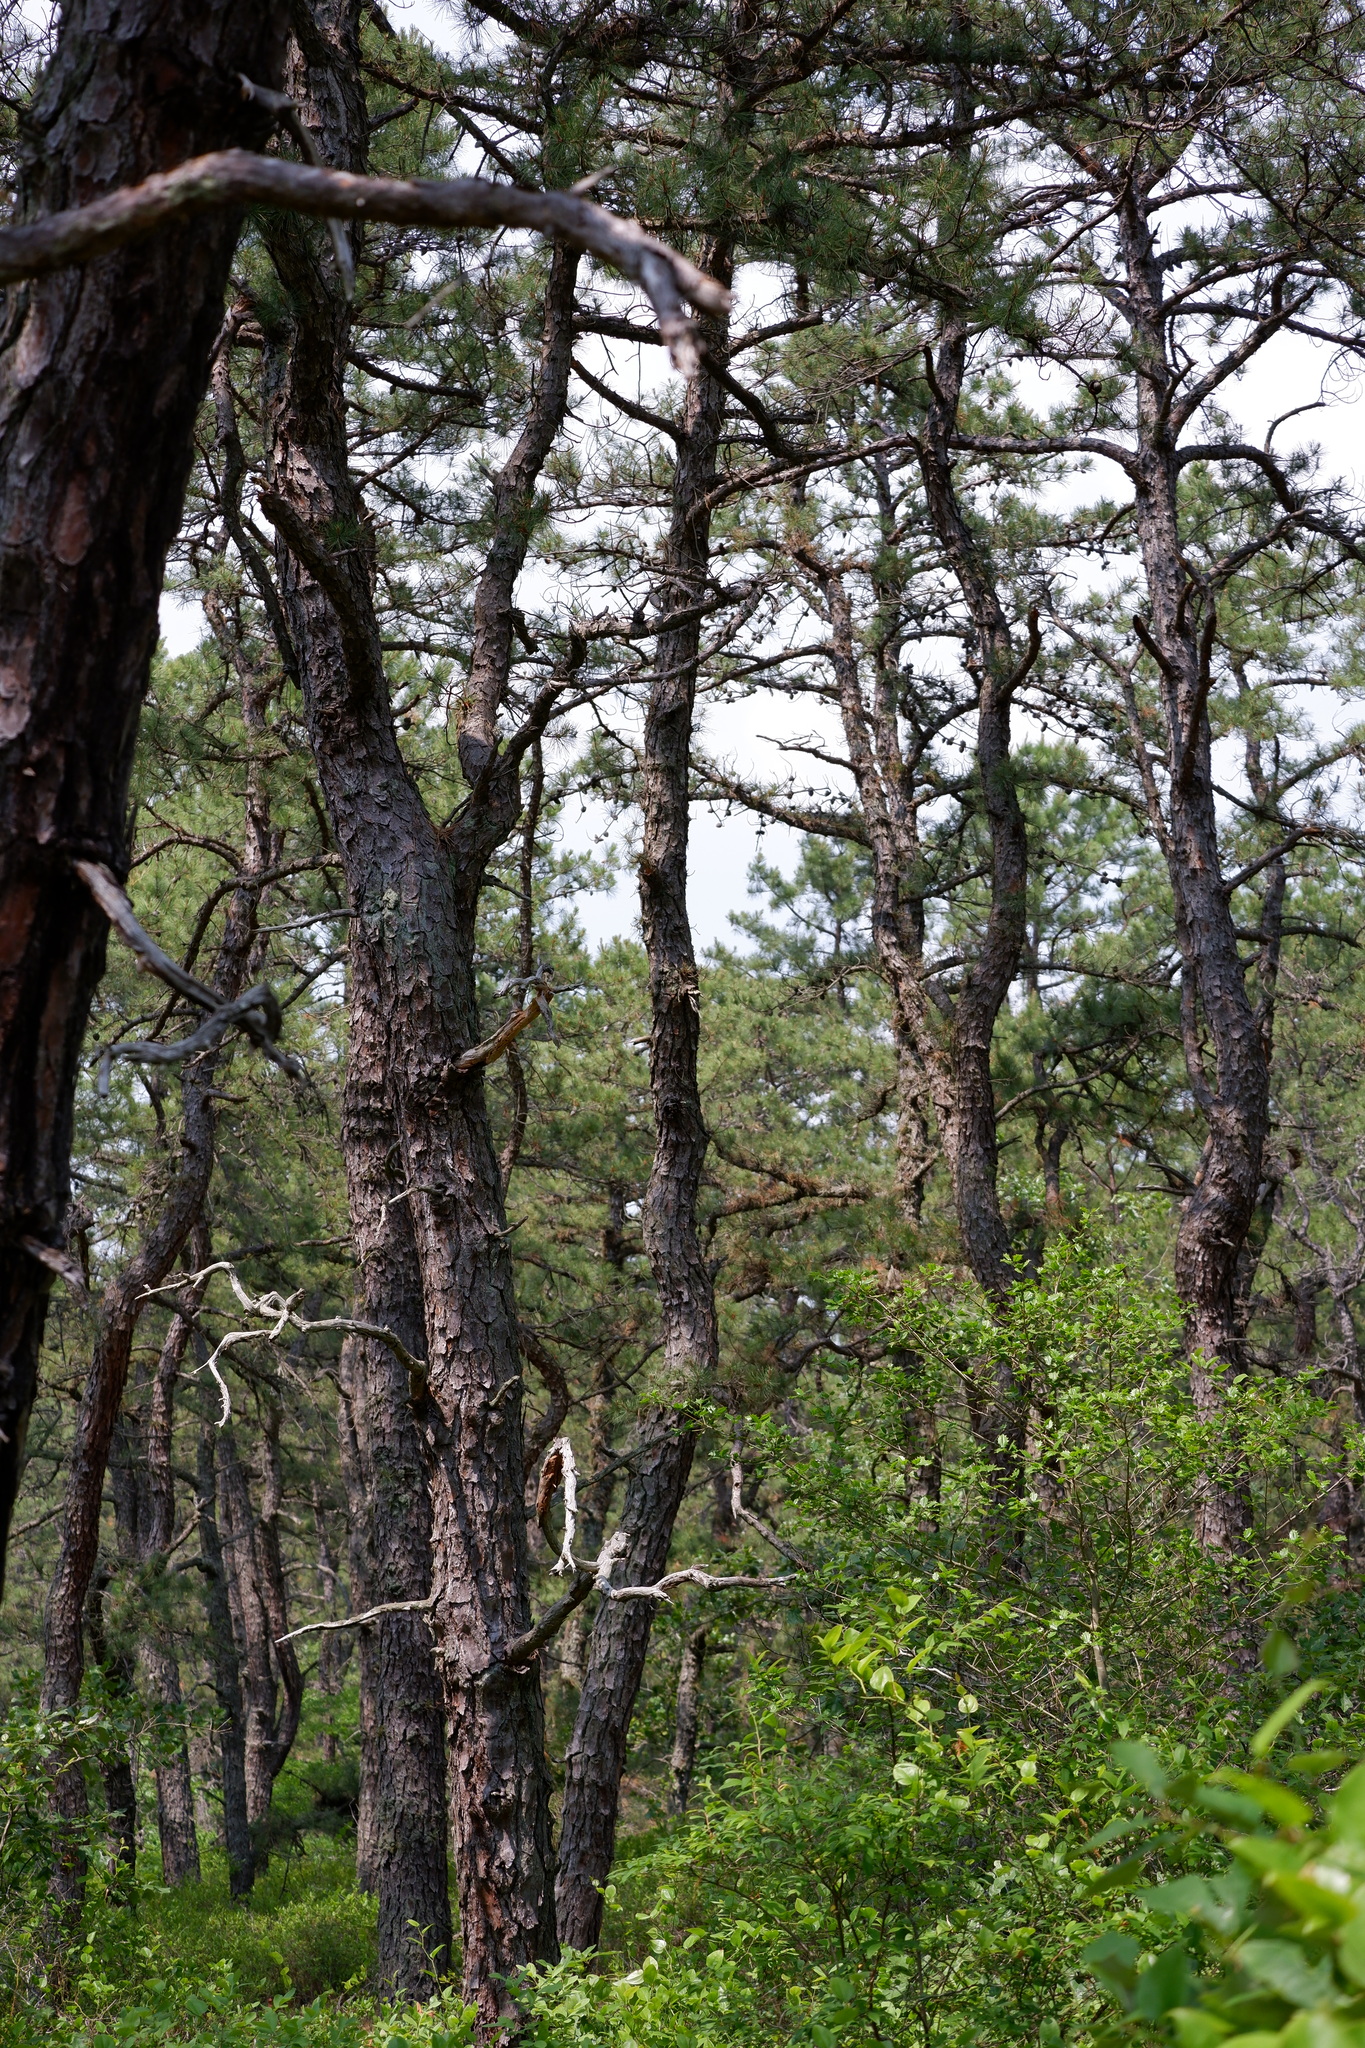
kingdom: Plantae
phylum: Tracheophyta
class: Pinopsida
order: Pinales
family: Pinaceae
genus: Pinus
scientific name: Pinus rigida
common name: Pitch pine
